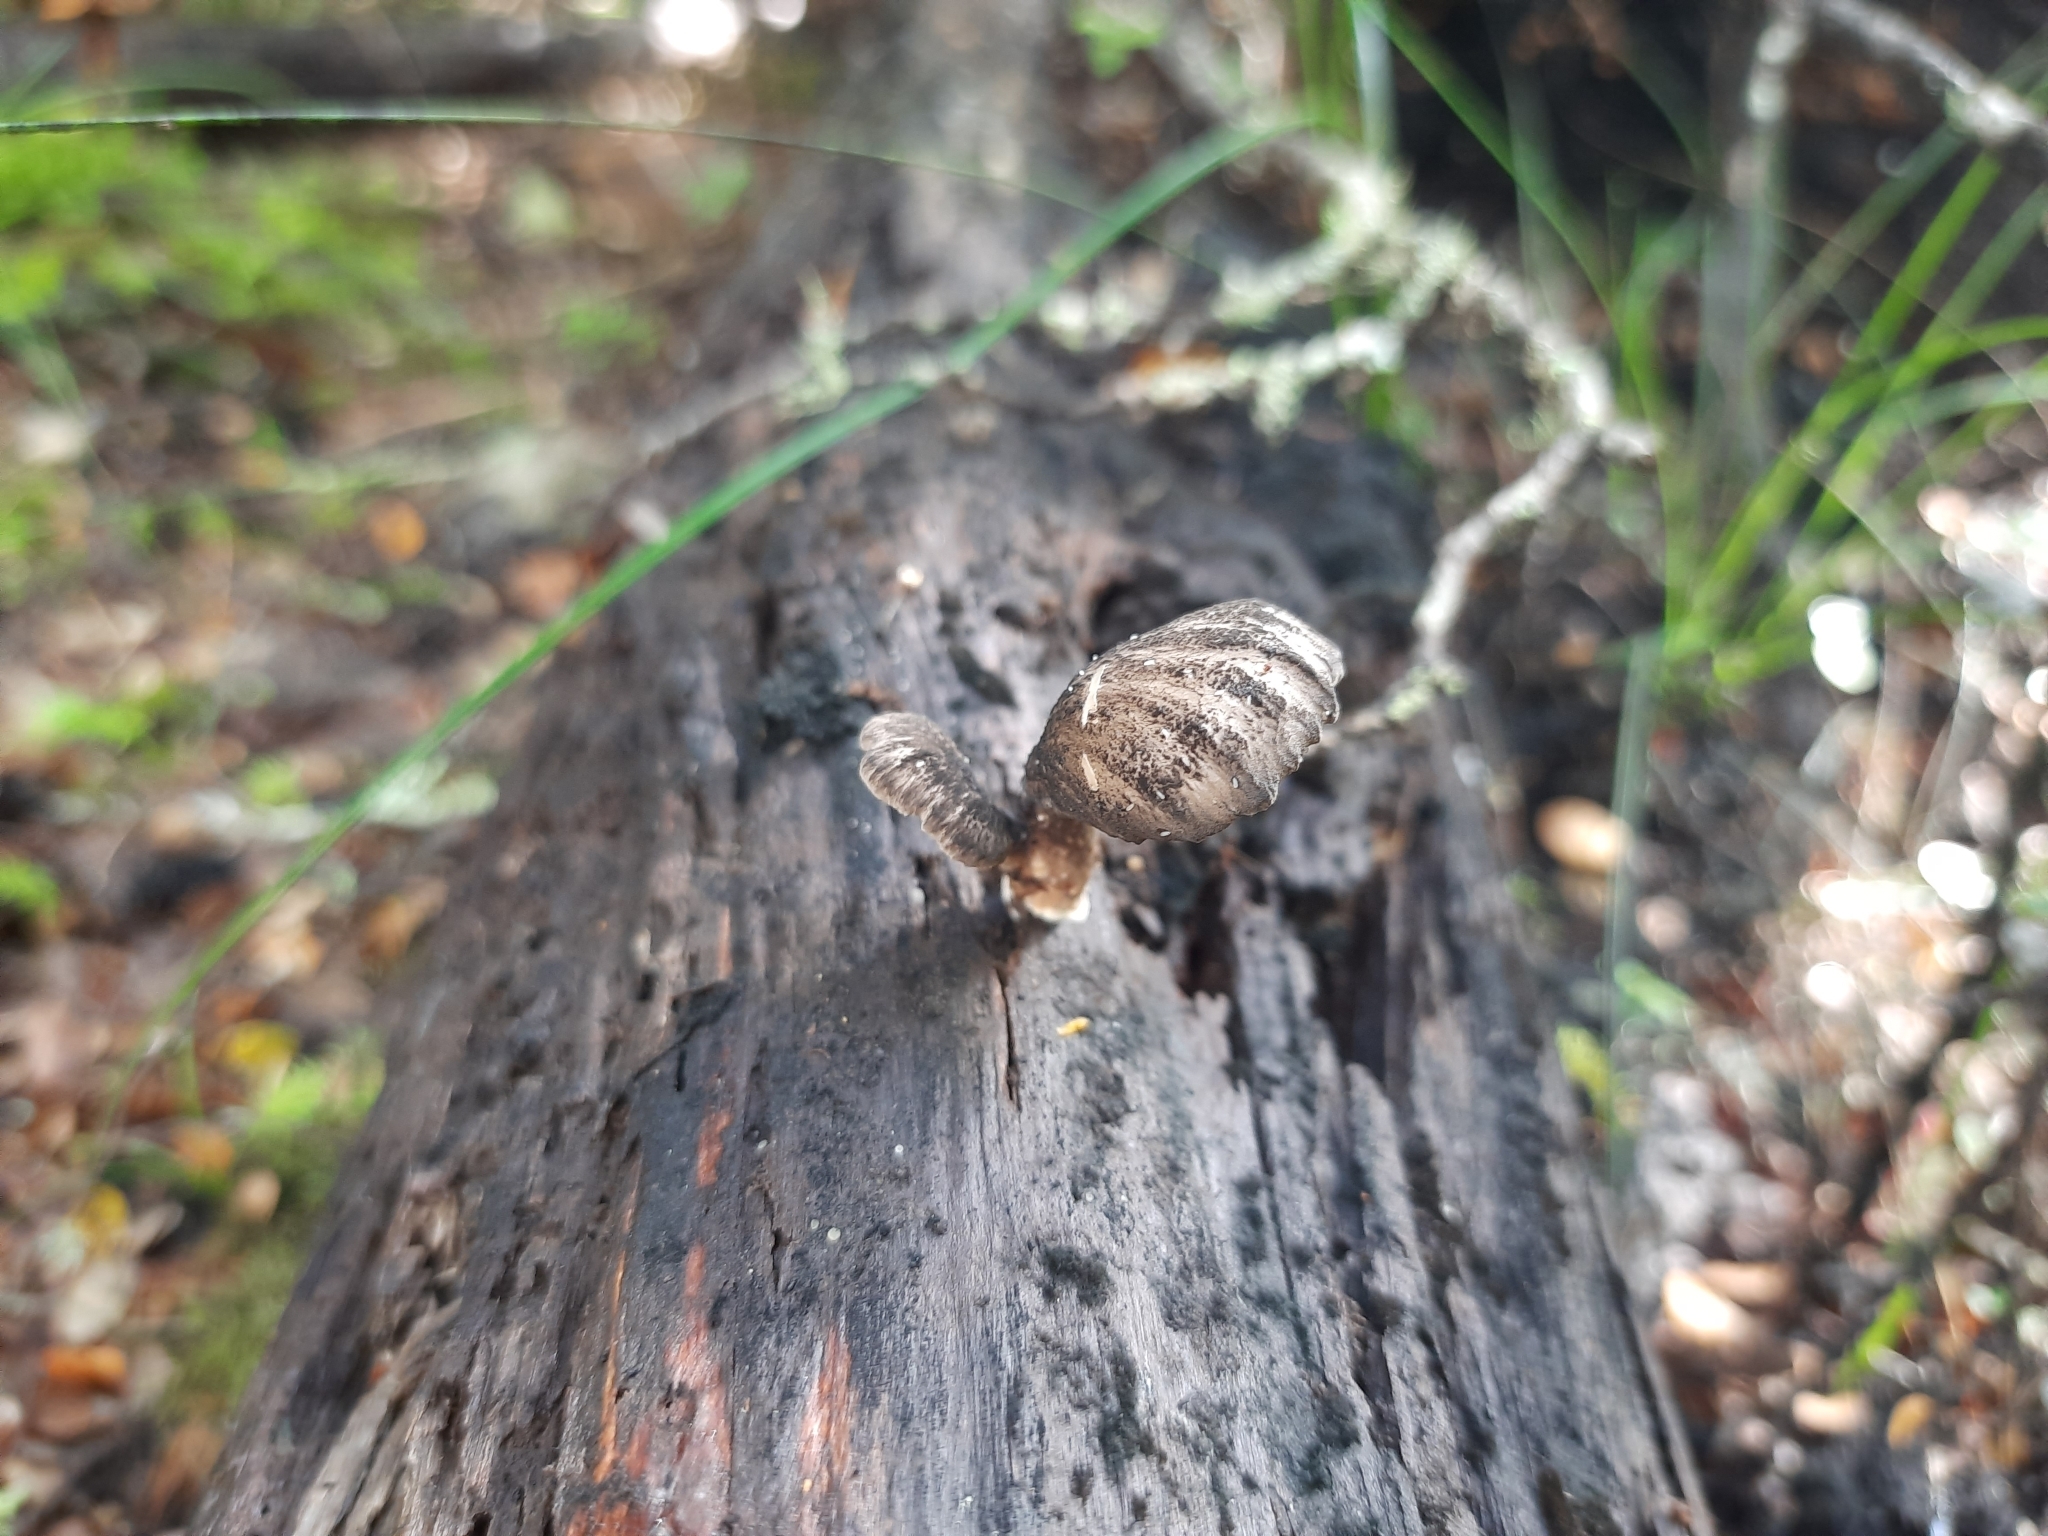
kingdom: Fungi
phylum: Basidiomycota
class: Agaricomycetes
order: Polyporales
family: Polyporaceae
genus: Polyporus
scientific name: Polyporus nigrocristatus
